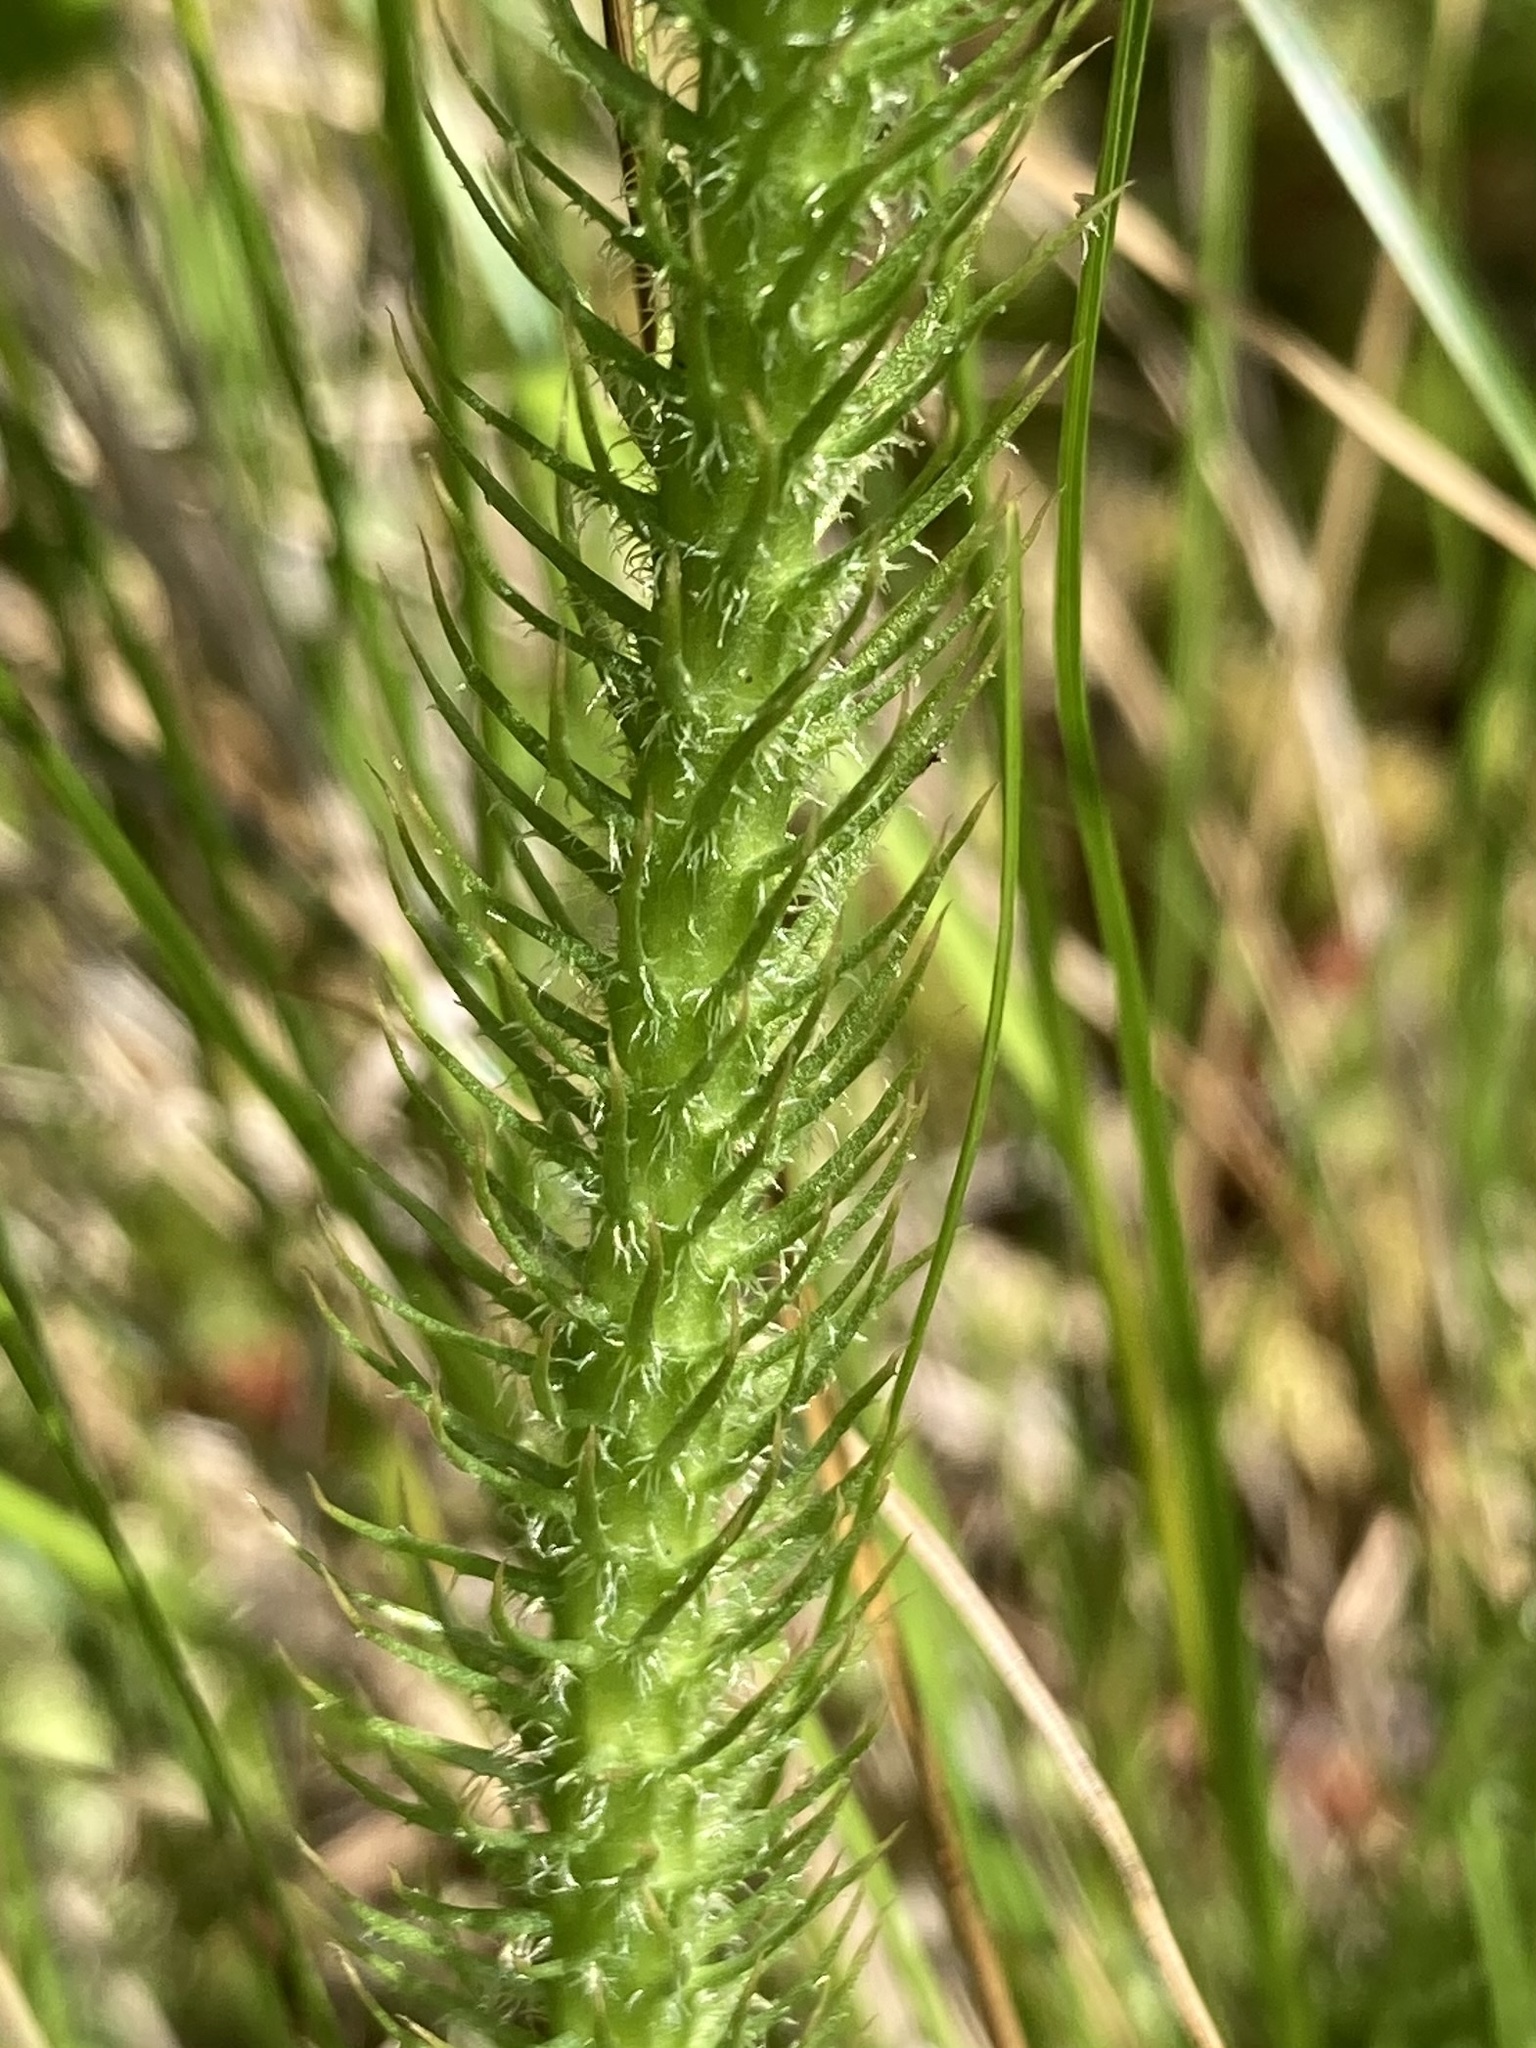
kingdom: Plantae
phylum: Tracheophyta
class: Lycopodiopsida
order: Lycopodiales
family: Lycopodiaceae
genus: Lycopodiella
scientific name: Lycopodiella alopecuroides
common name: Foxtail clubmoss
